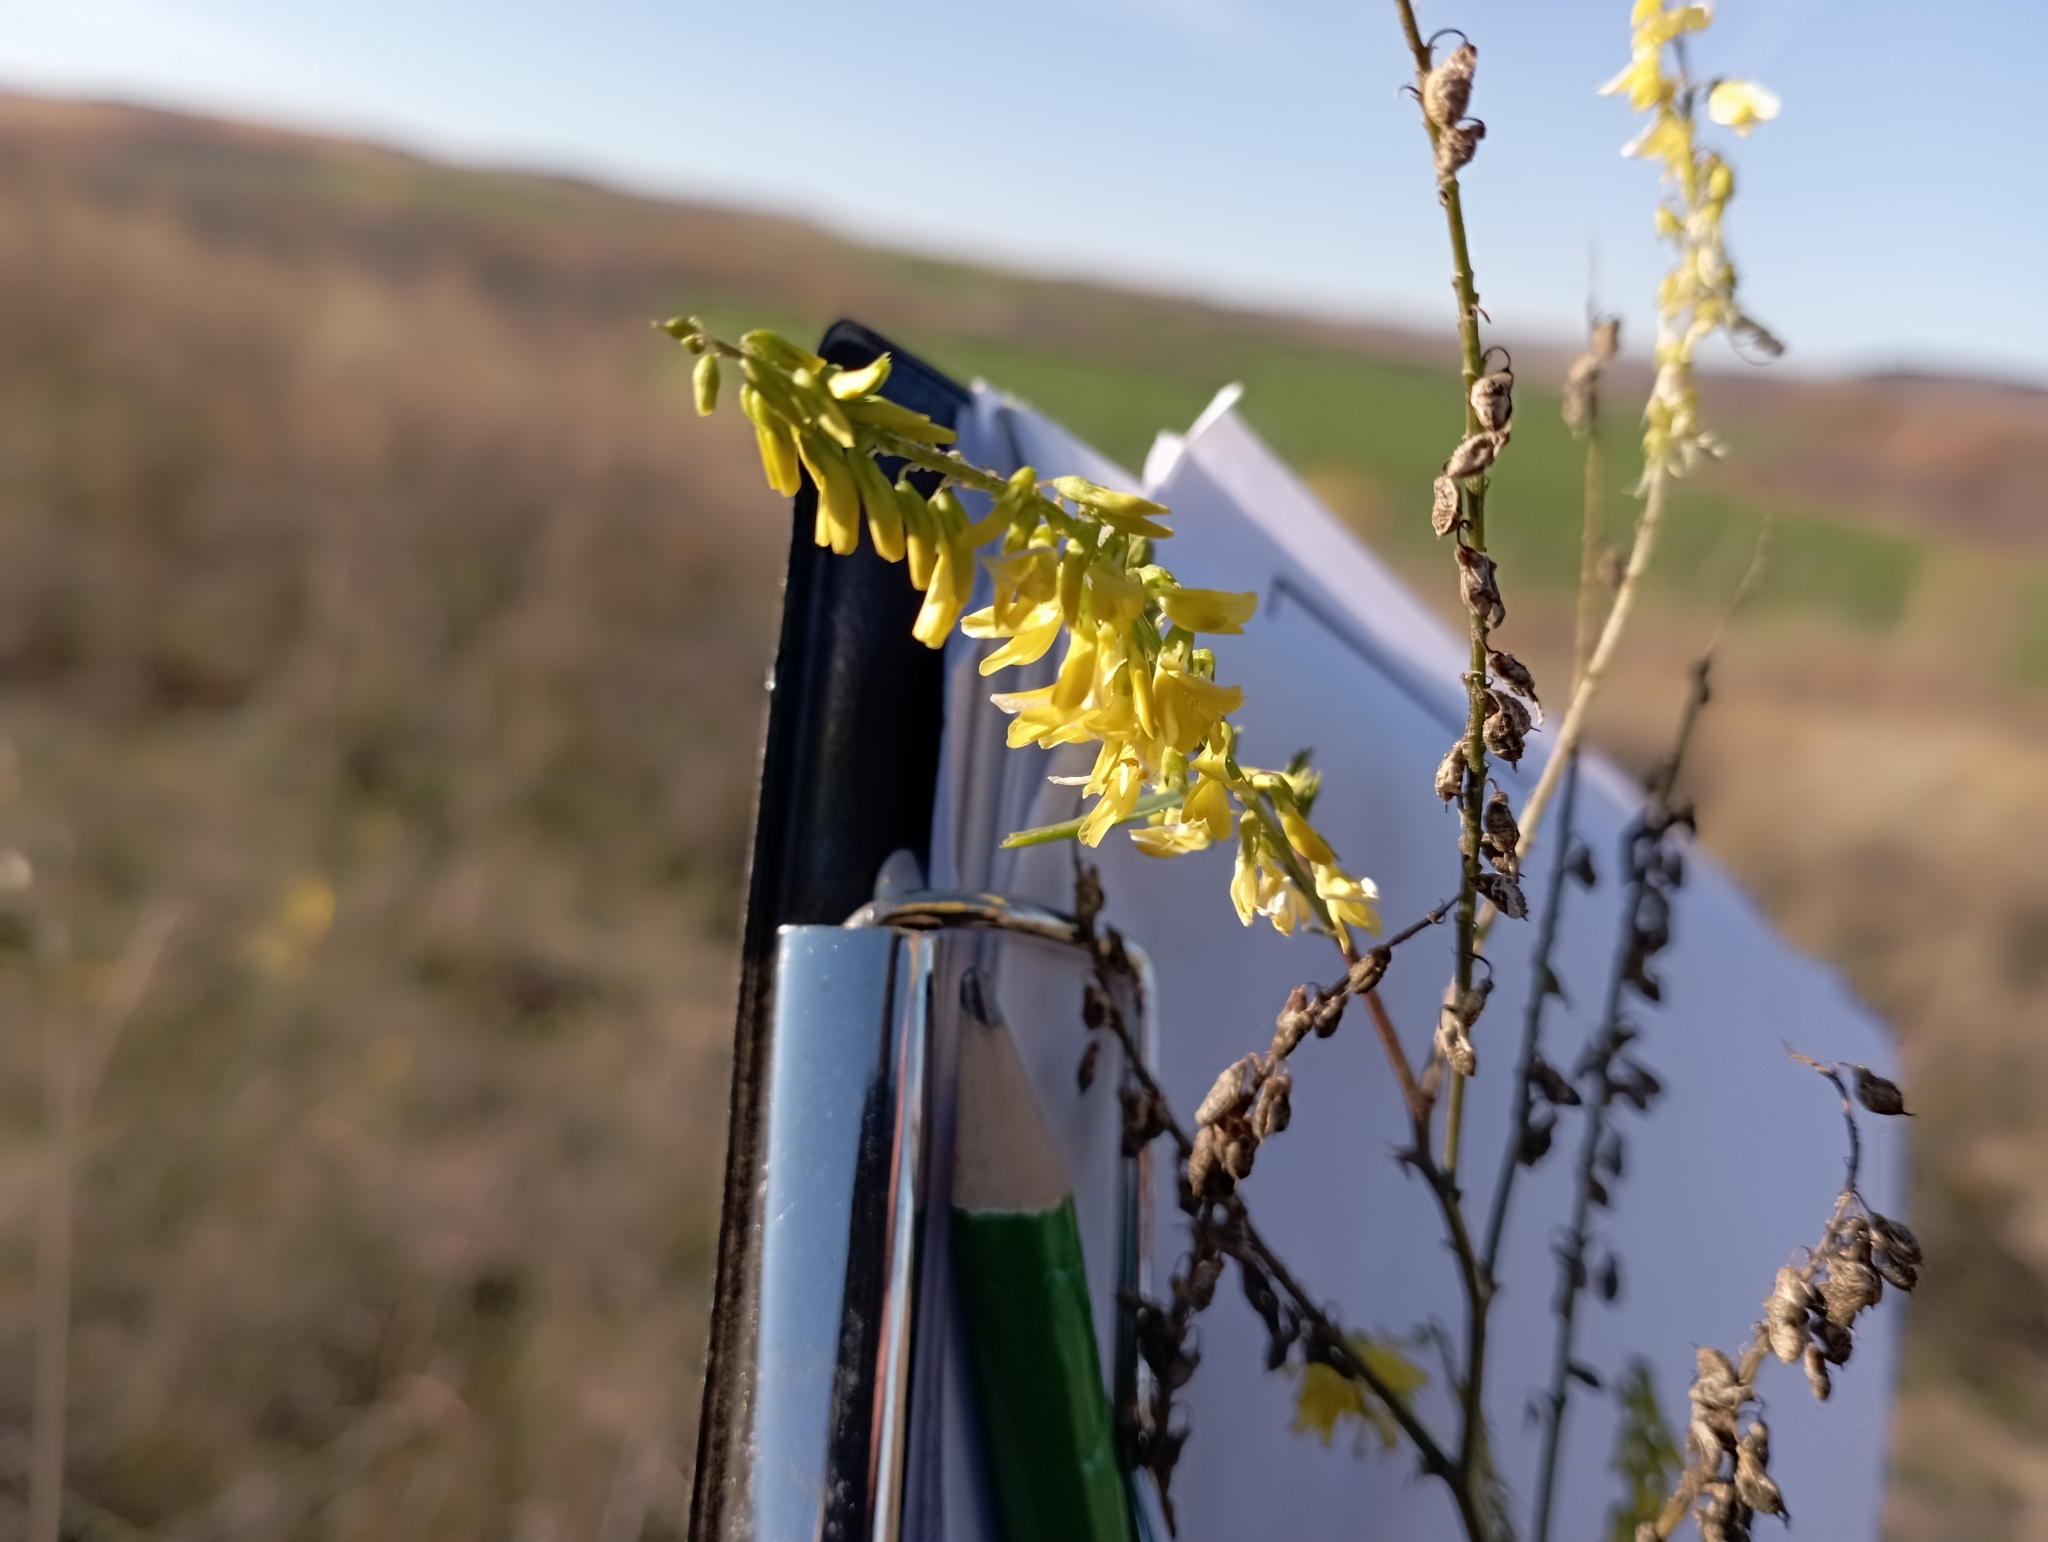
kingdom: Plantae
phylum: Tracheophyta
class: Magnoliopsida
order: Fabales
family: Fabaceae
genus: Melilotus
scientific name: Melilotus officinalis
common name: Sweetclover
